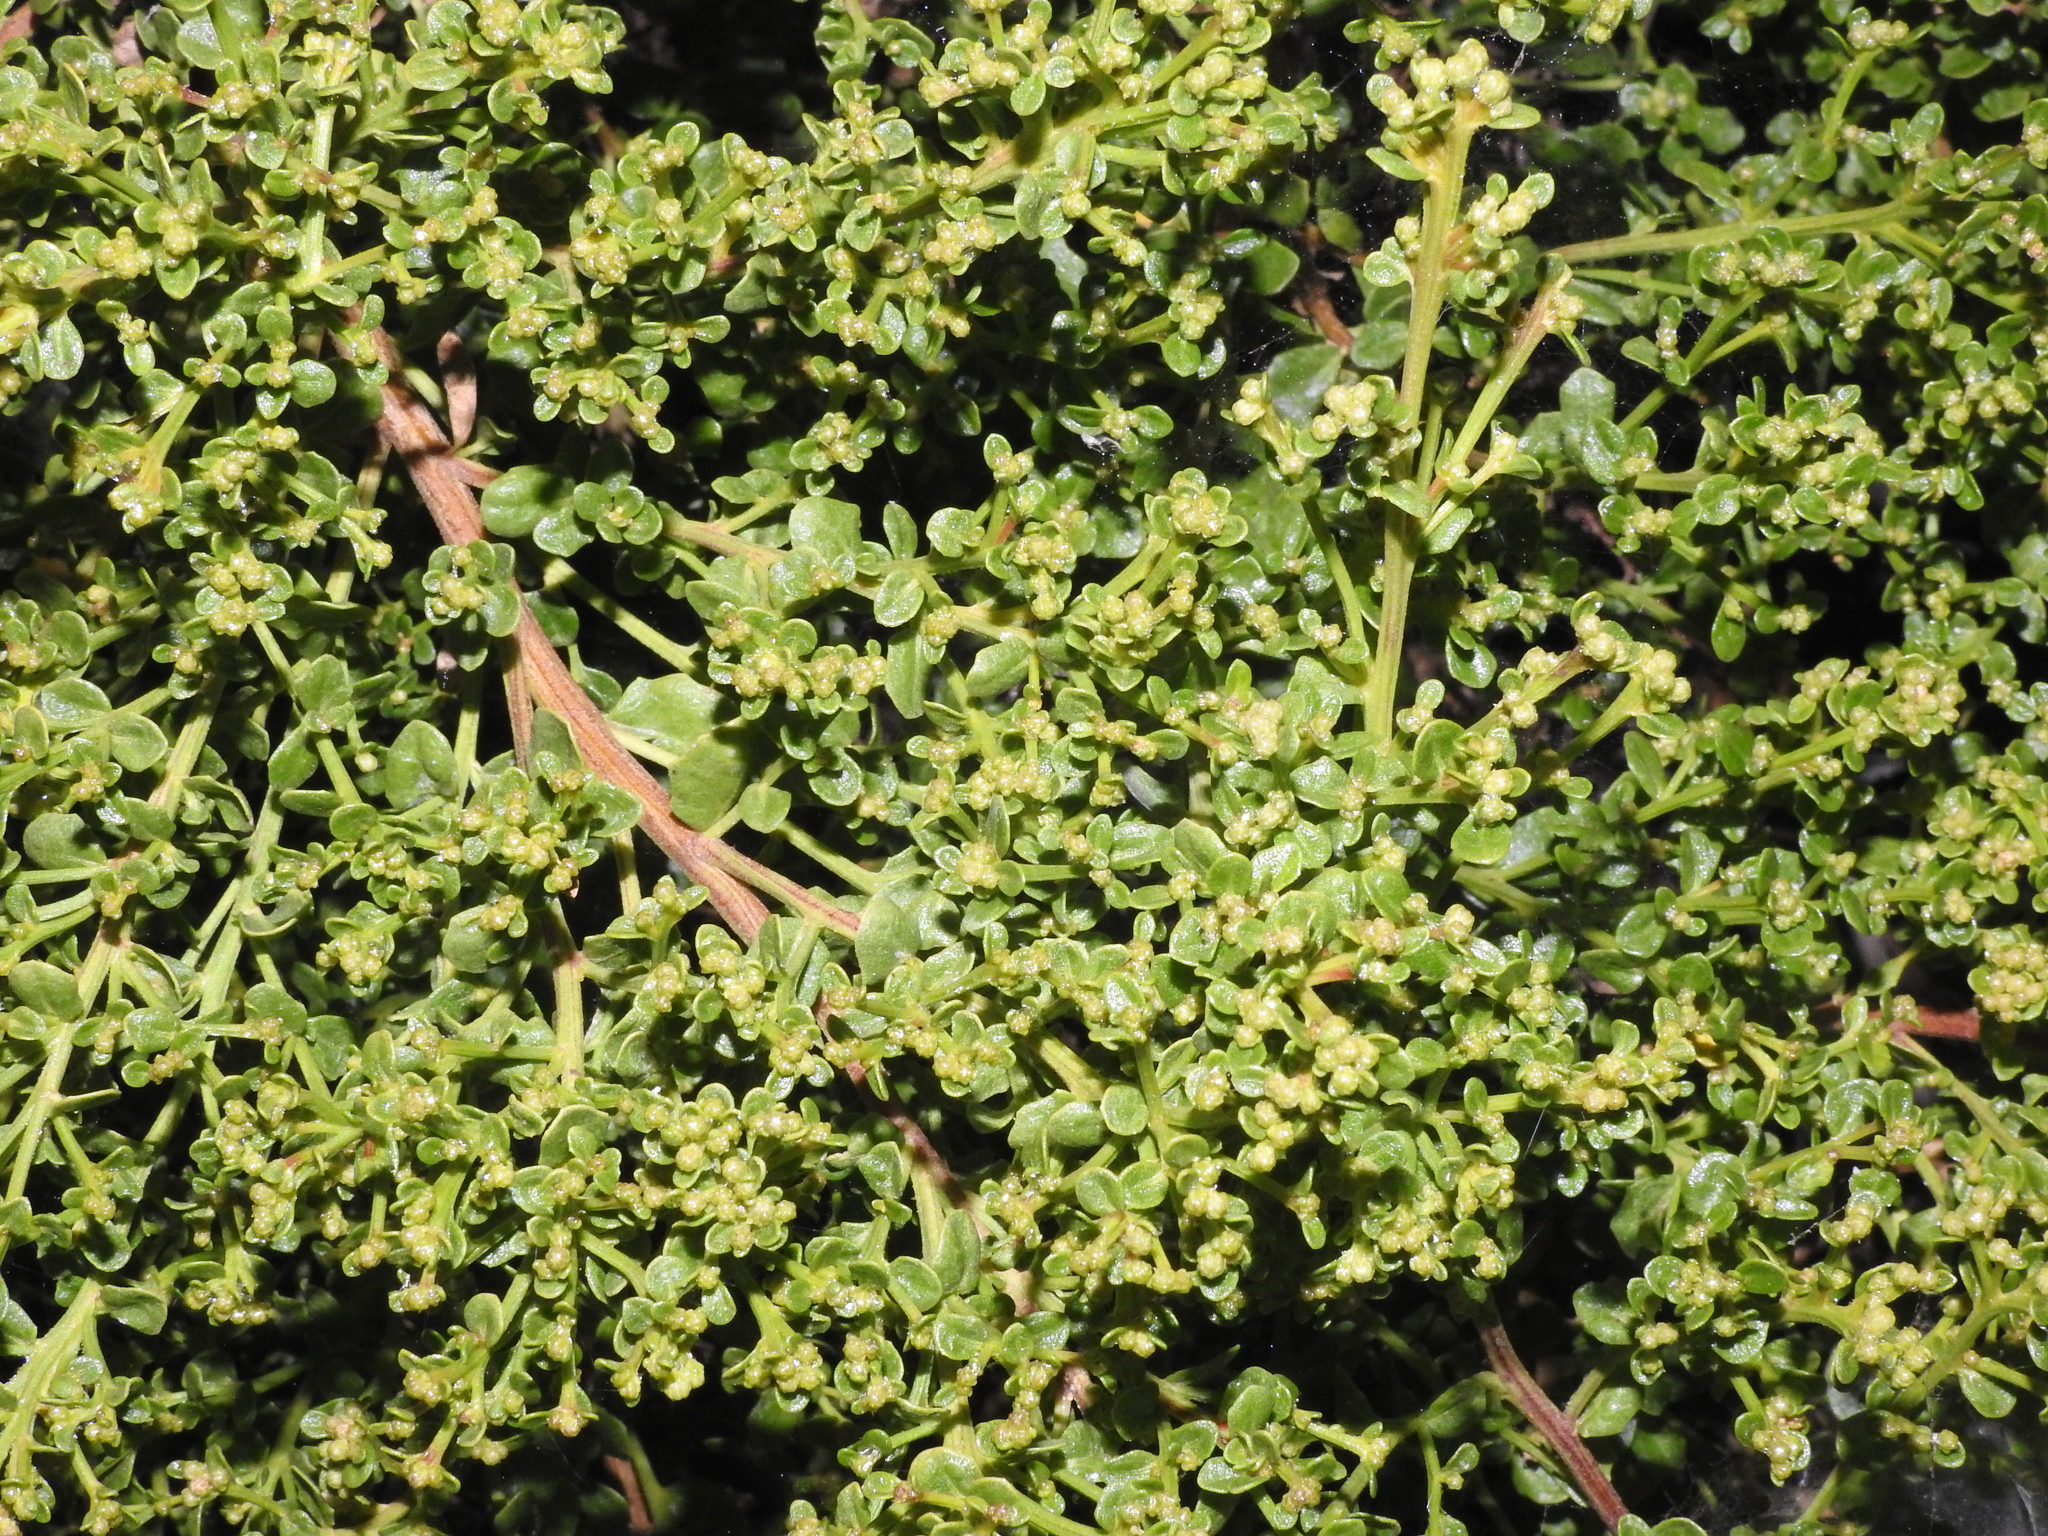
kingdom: Plantae
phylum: Tracheophyta
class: Magnoliopsida
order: Asterales
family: Asteraceae
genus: Baccharis
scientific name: Baccharis pilularis
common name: Coyotebrush
